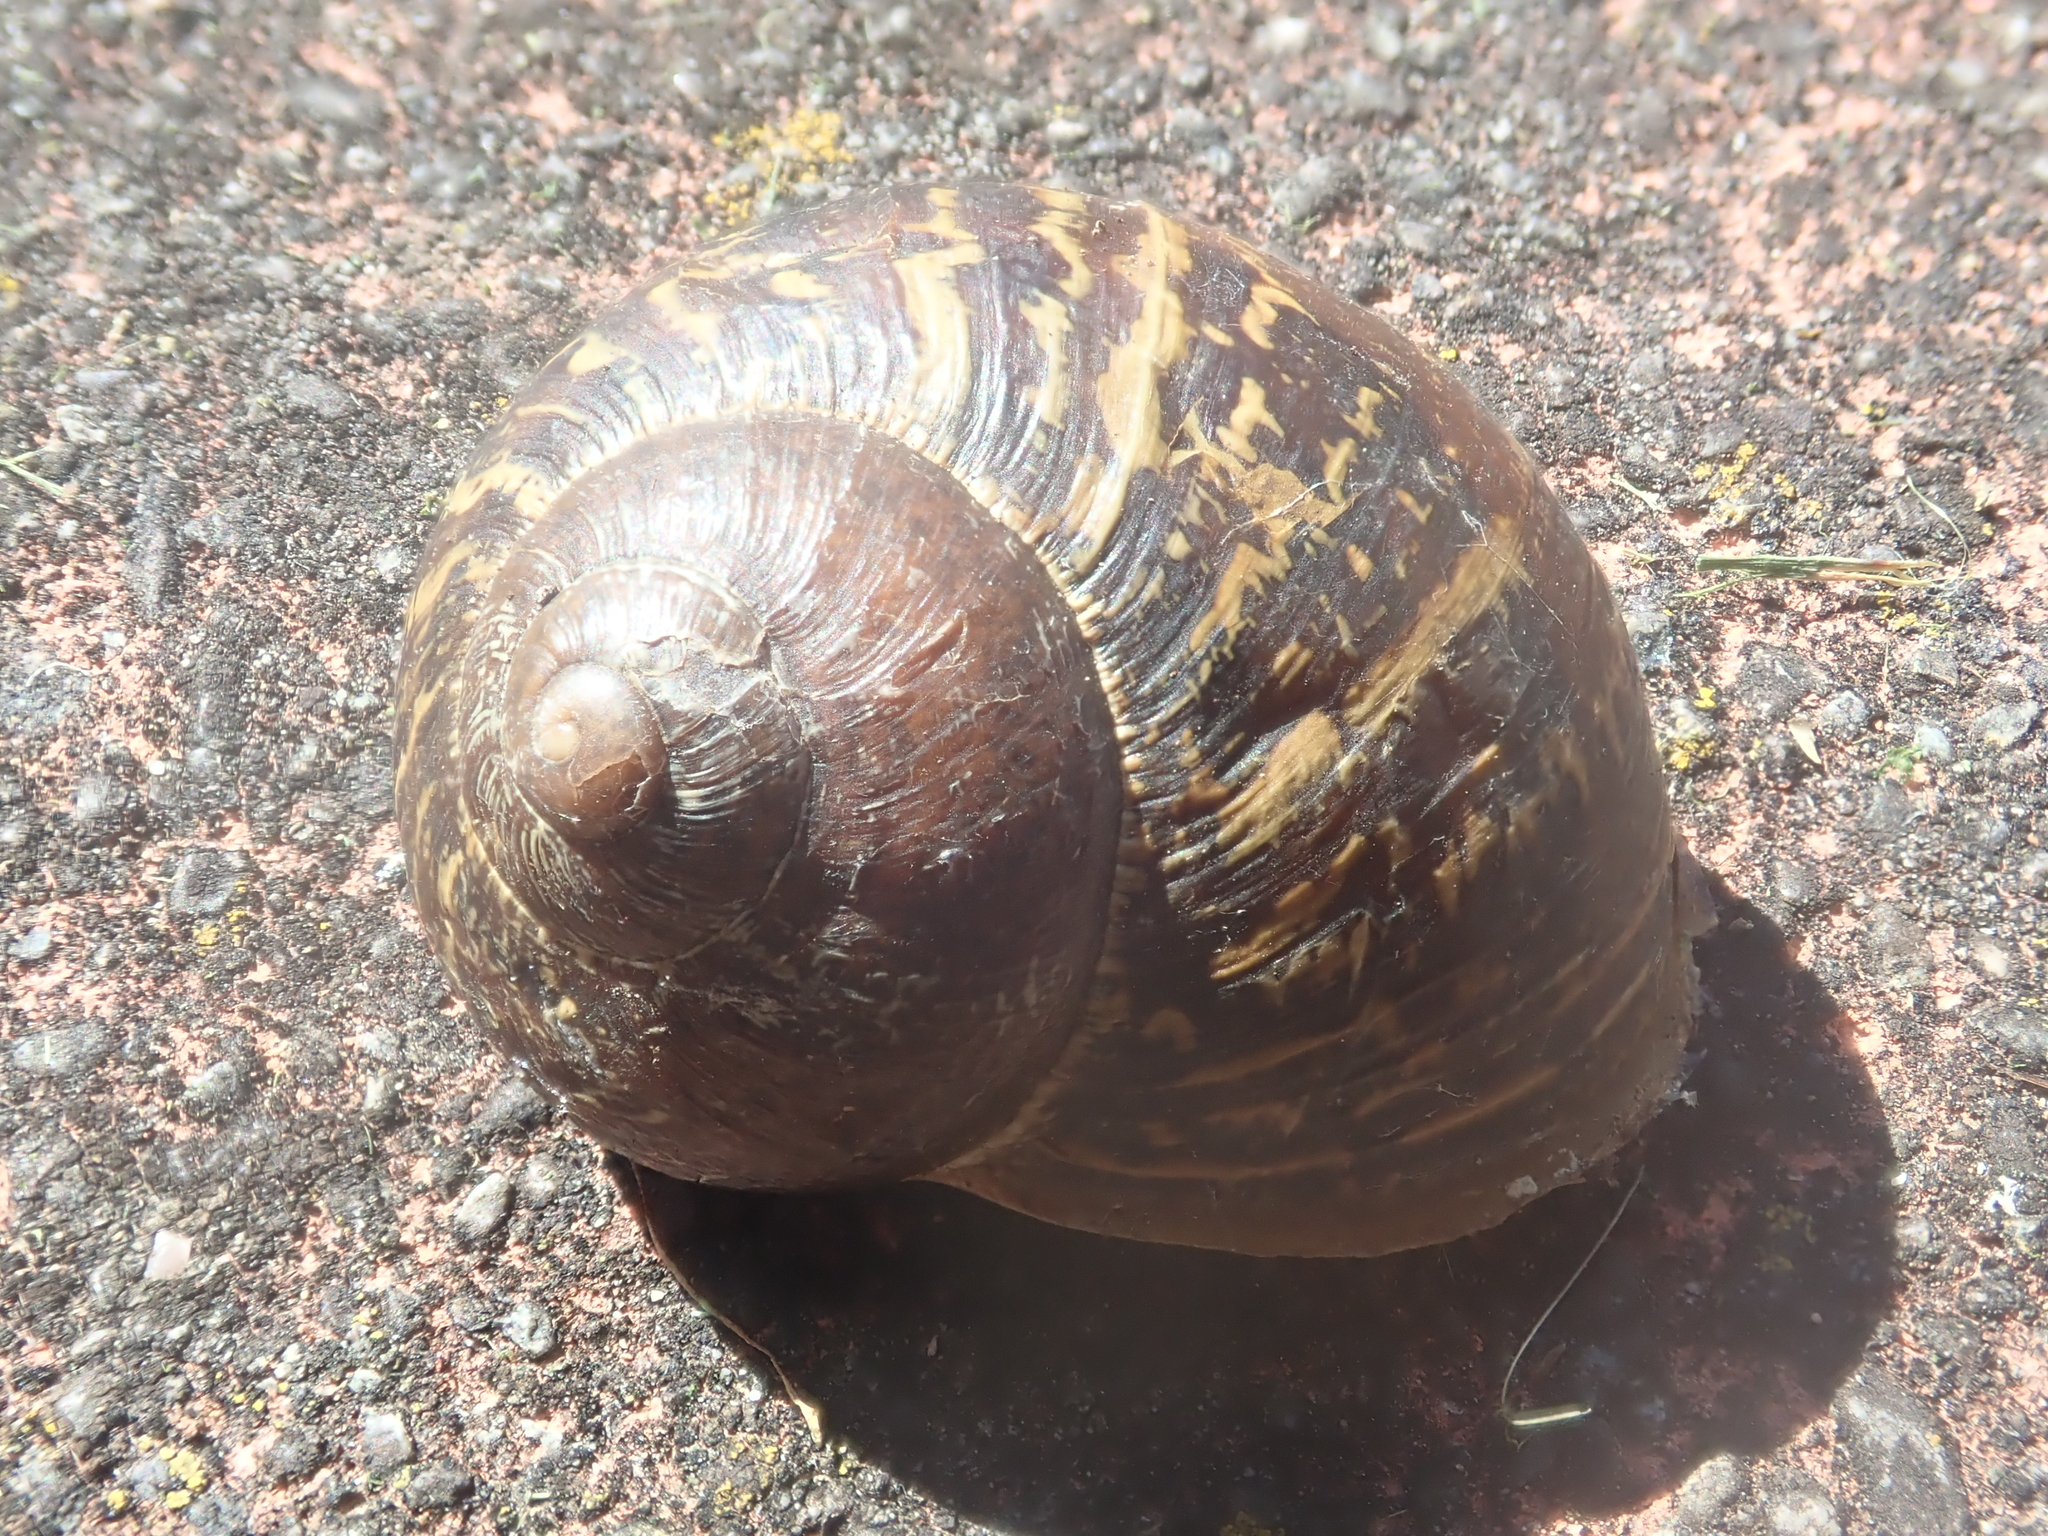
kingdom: Animalia
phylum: Mollusca
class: Gastropoda
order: Stylommatophora
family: Helicidae
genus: Cornu
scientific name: Cornu aspersum
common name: Brown garden snail
